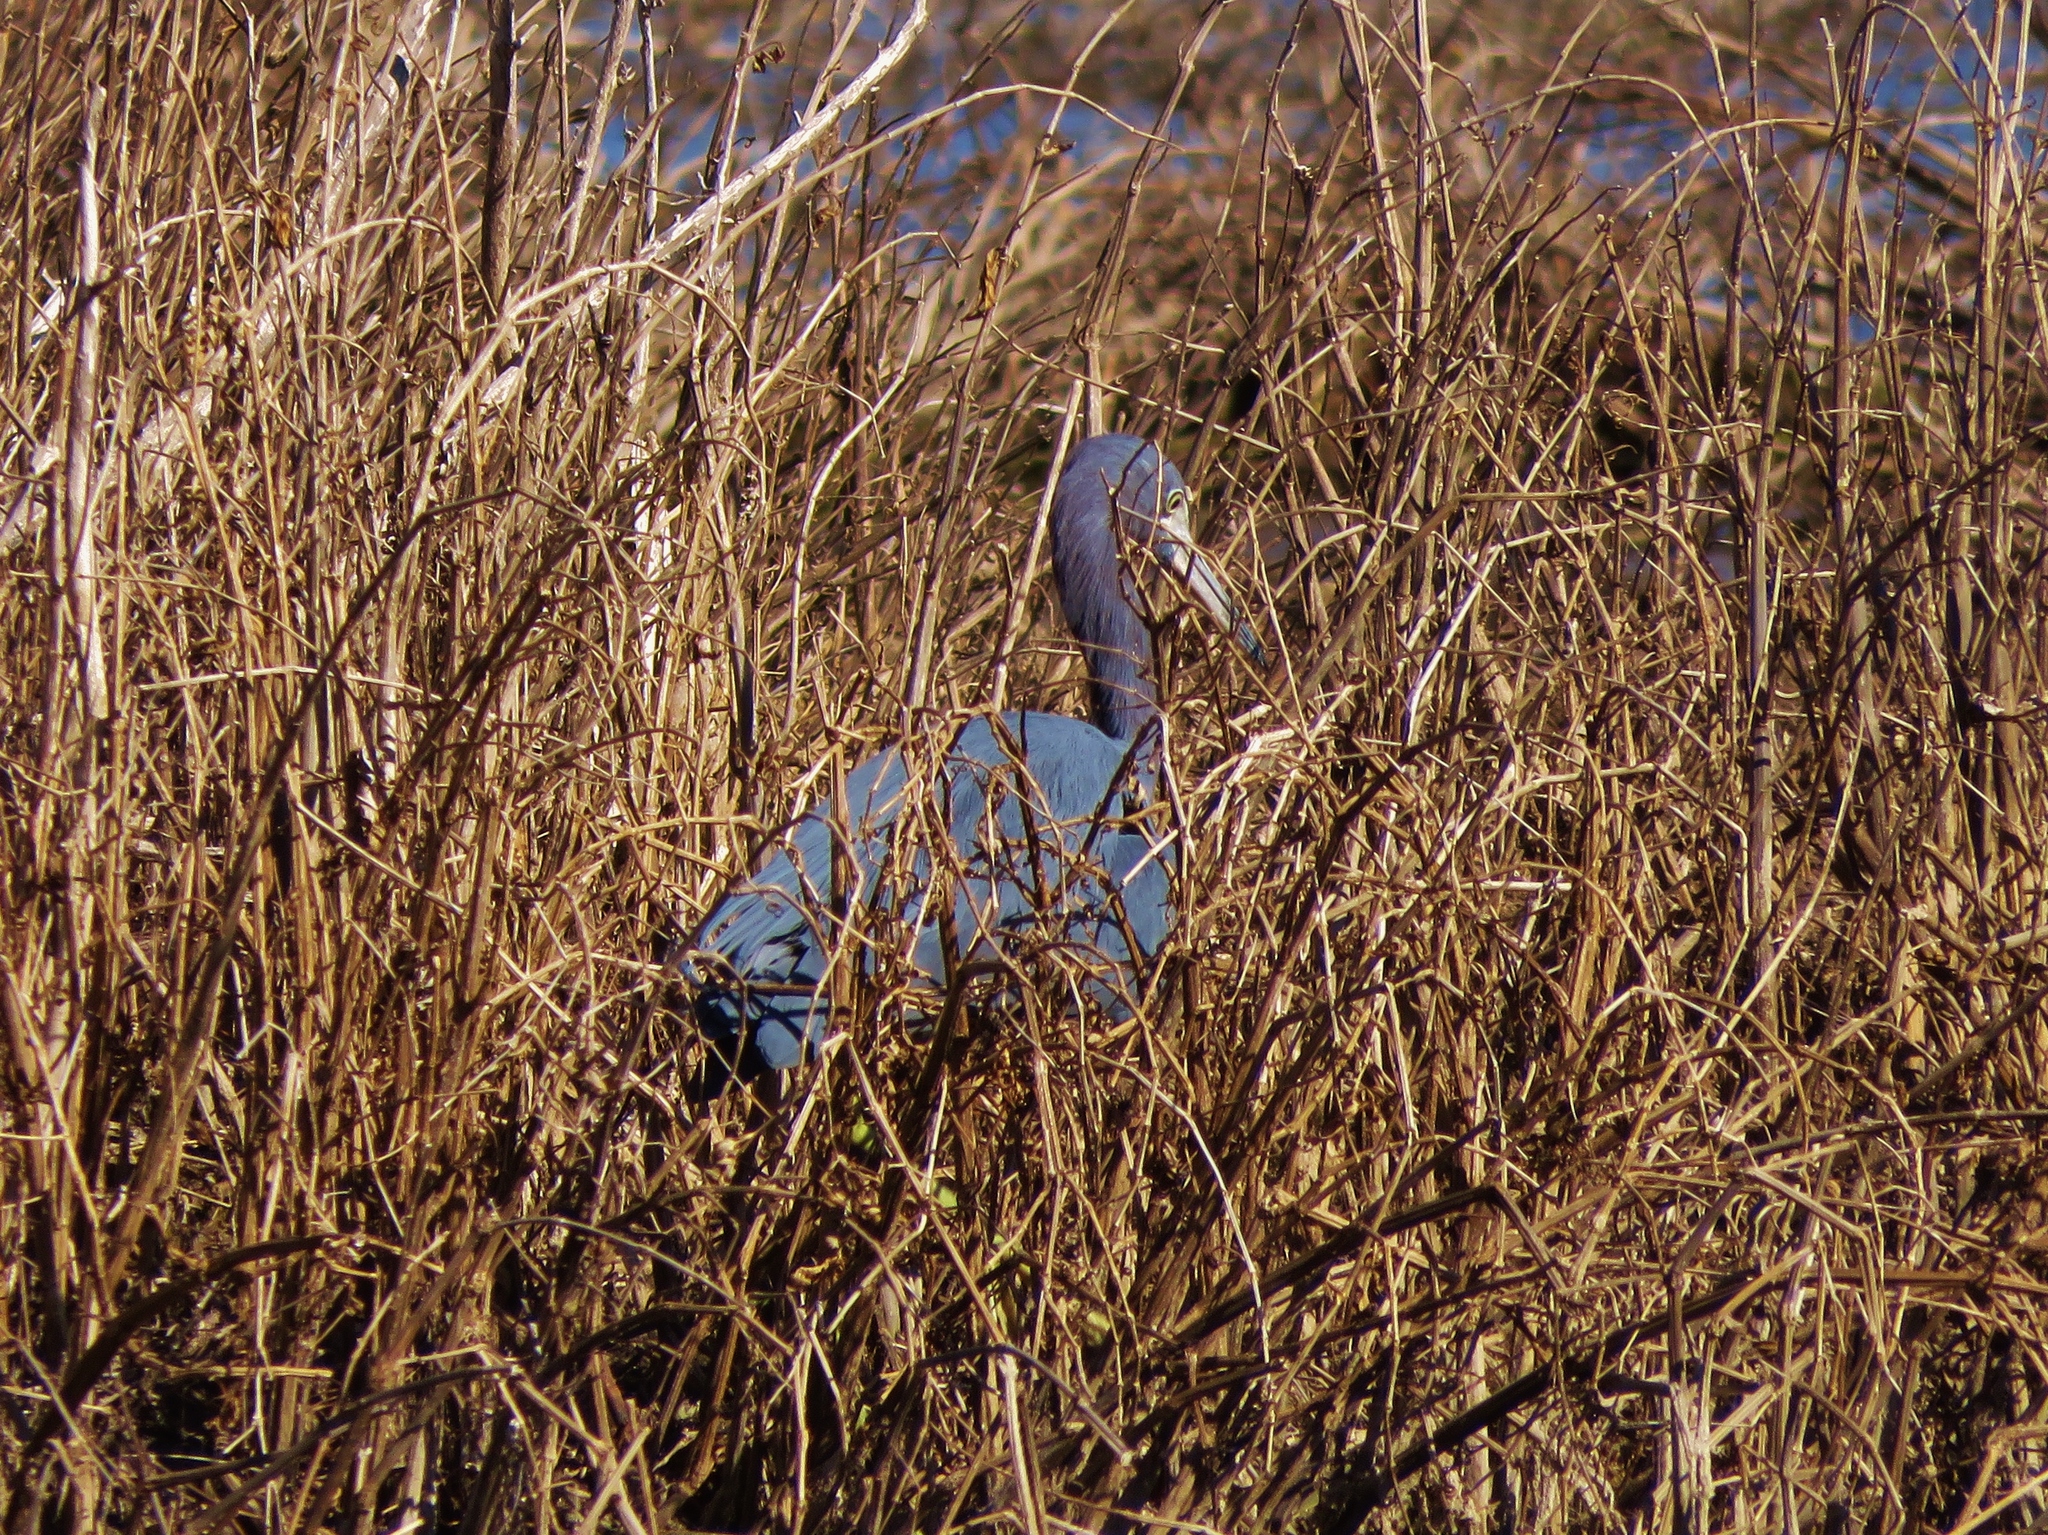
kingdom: Animalia
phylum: Chordata
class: Aves
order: Pelecaniformes
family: Ardeidae
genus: Egretta
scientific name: Egretta caerulea
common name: Little blue heron
